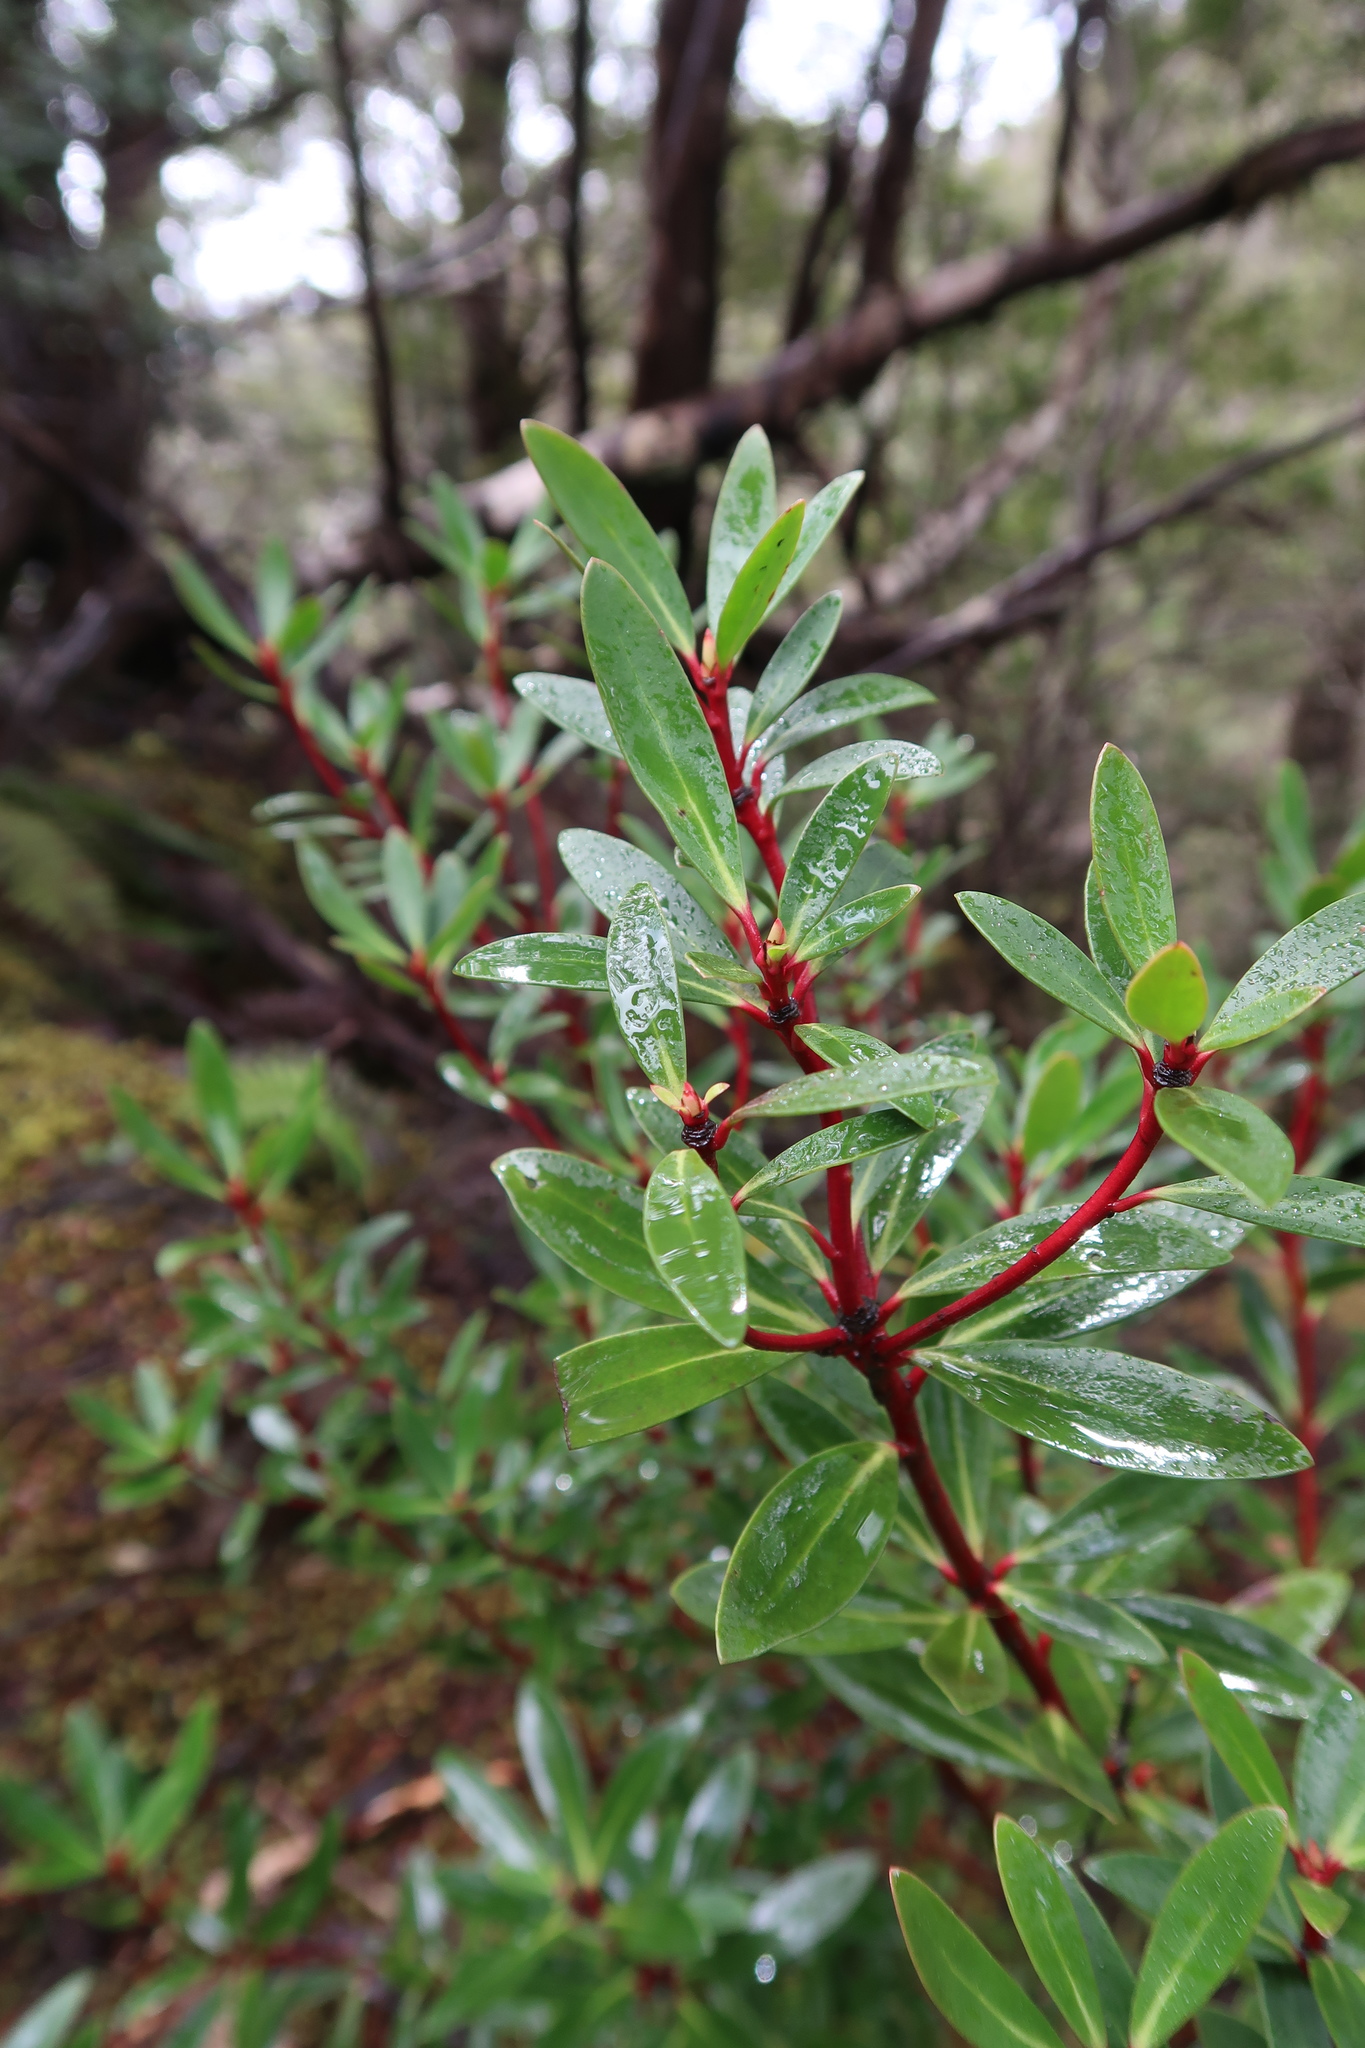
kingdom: Plantae
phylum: Tracheophyta
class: Magnoliopsida
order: Canellales
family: Winteraceae
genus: Drimys
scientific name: Drimys aromatica
